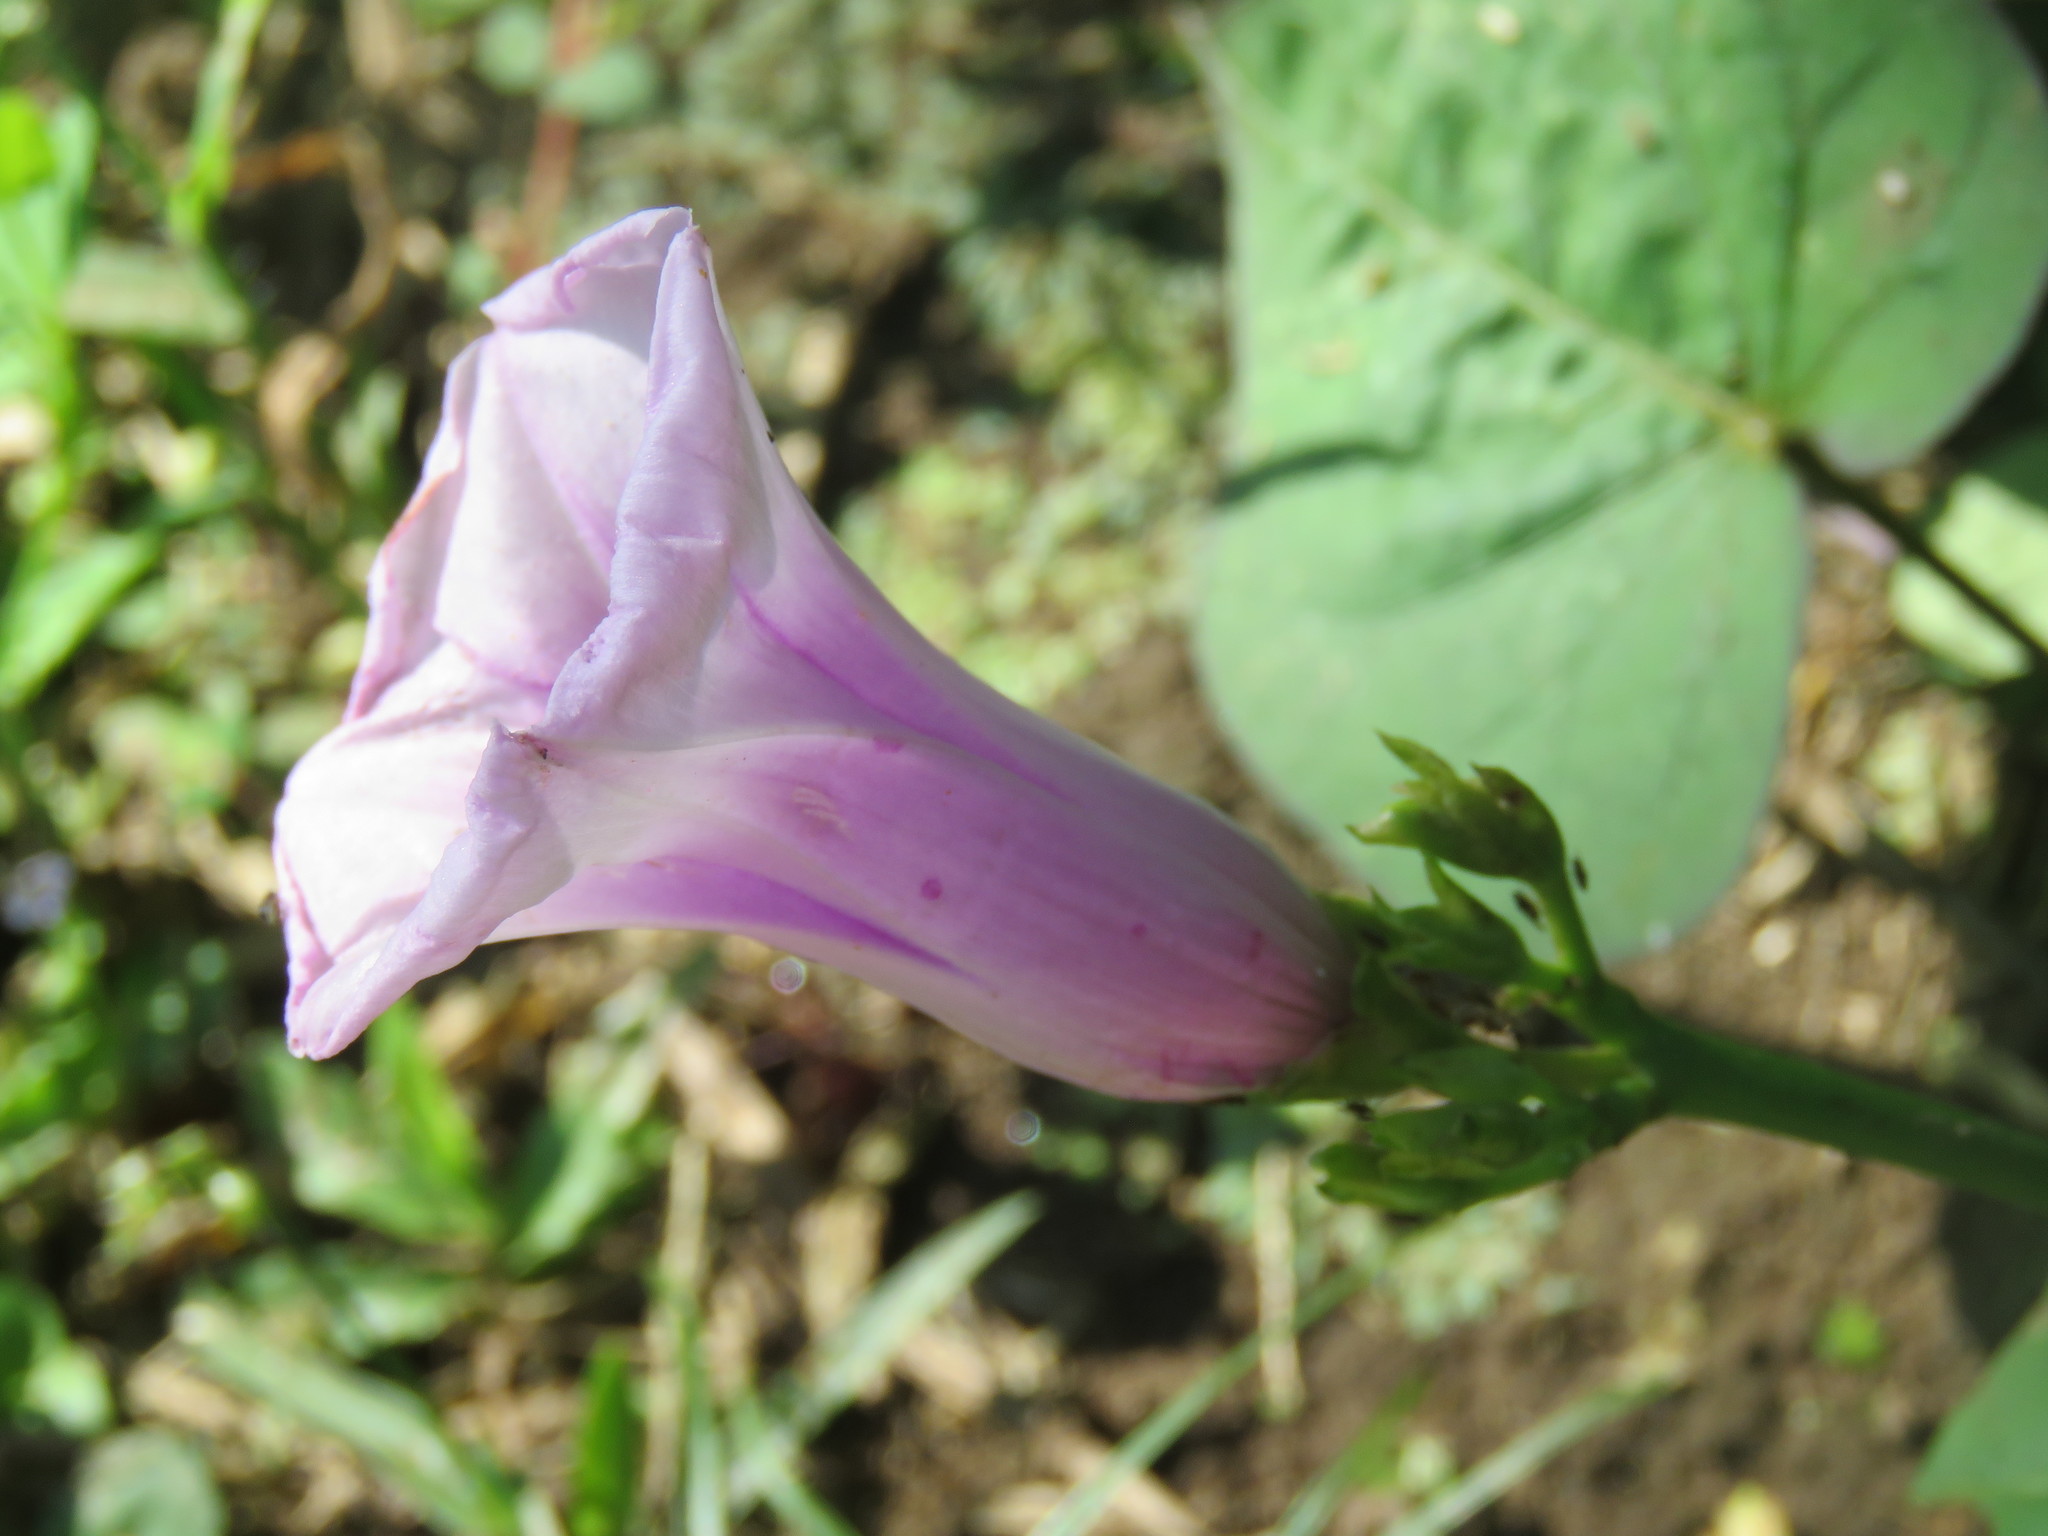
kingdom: Plantae
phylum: Tracheophyta
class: Magnoliopsida
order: Solanales
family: Convolvulaceae
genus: Ipomoea
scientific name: Ipomoea batatas
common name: Sweet-potato
